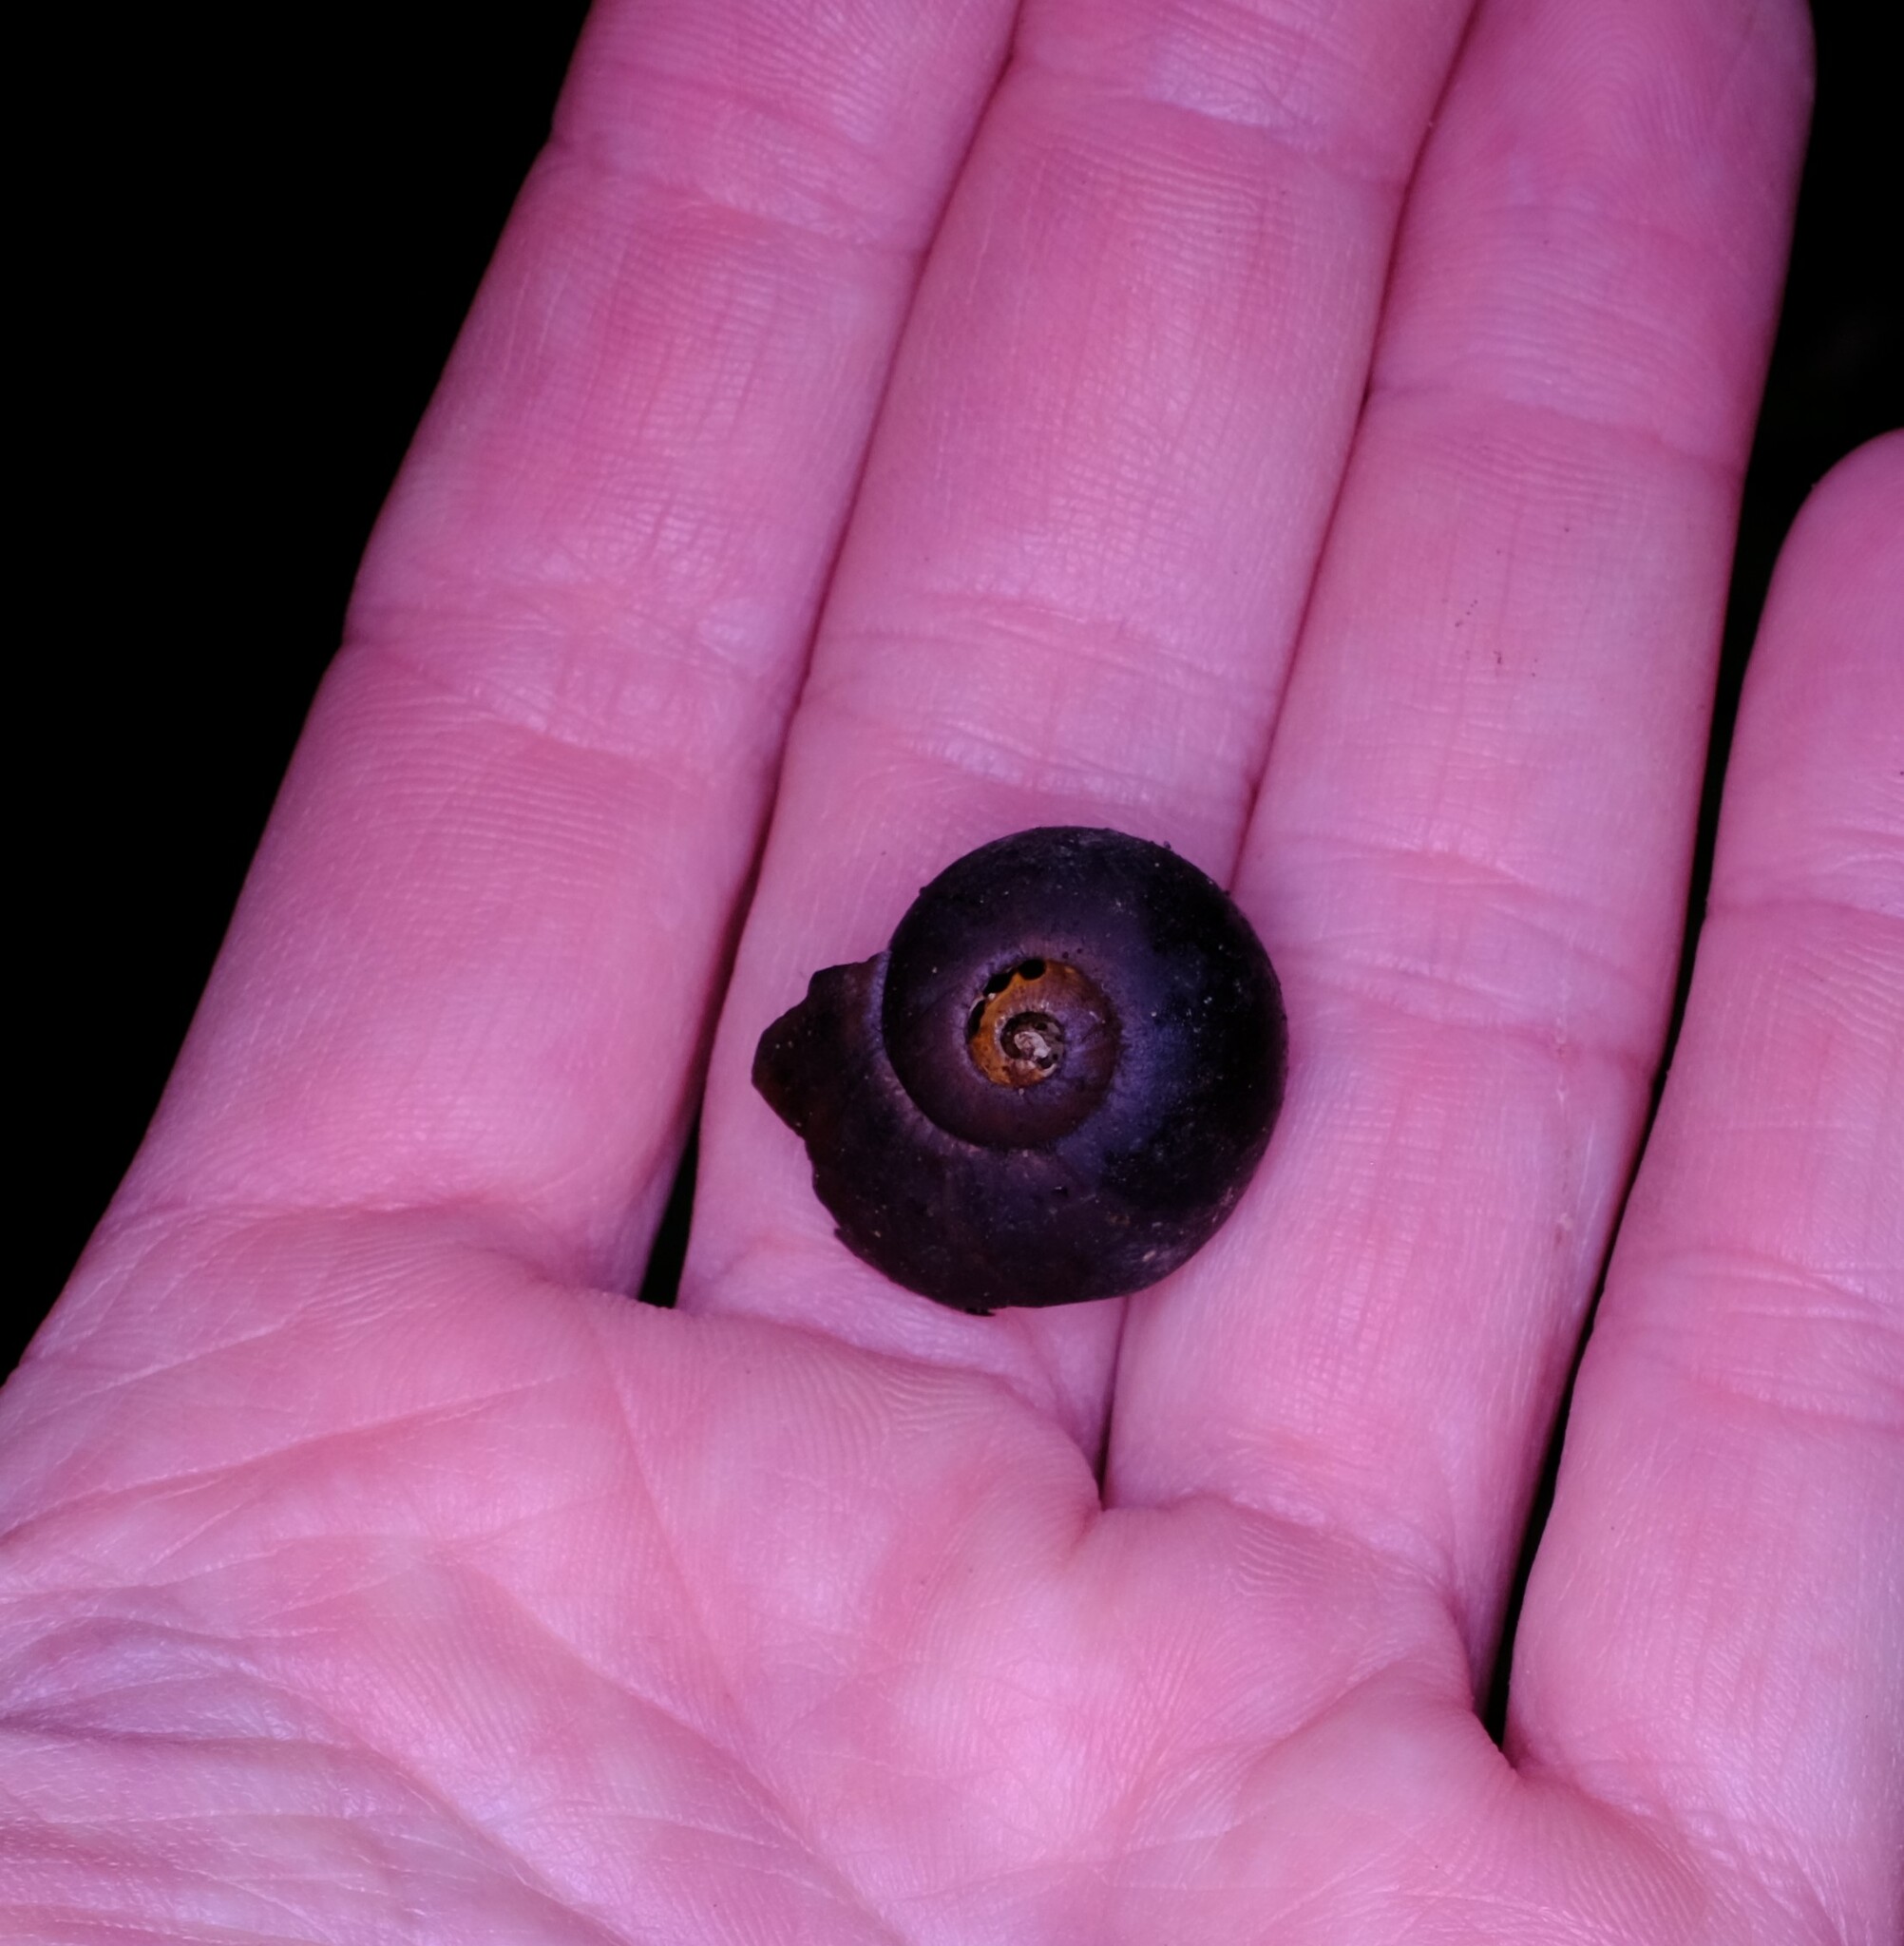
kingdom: Animalia
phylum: Mollusca
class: Gastropoda
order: Stylommatophora
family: Rhytididae
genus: Victaphanta
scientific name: Victaphanta compacta
